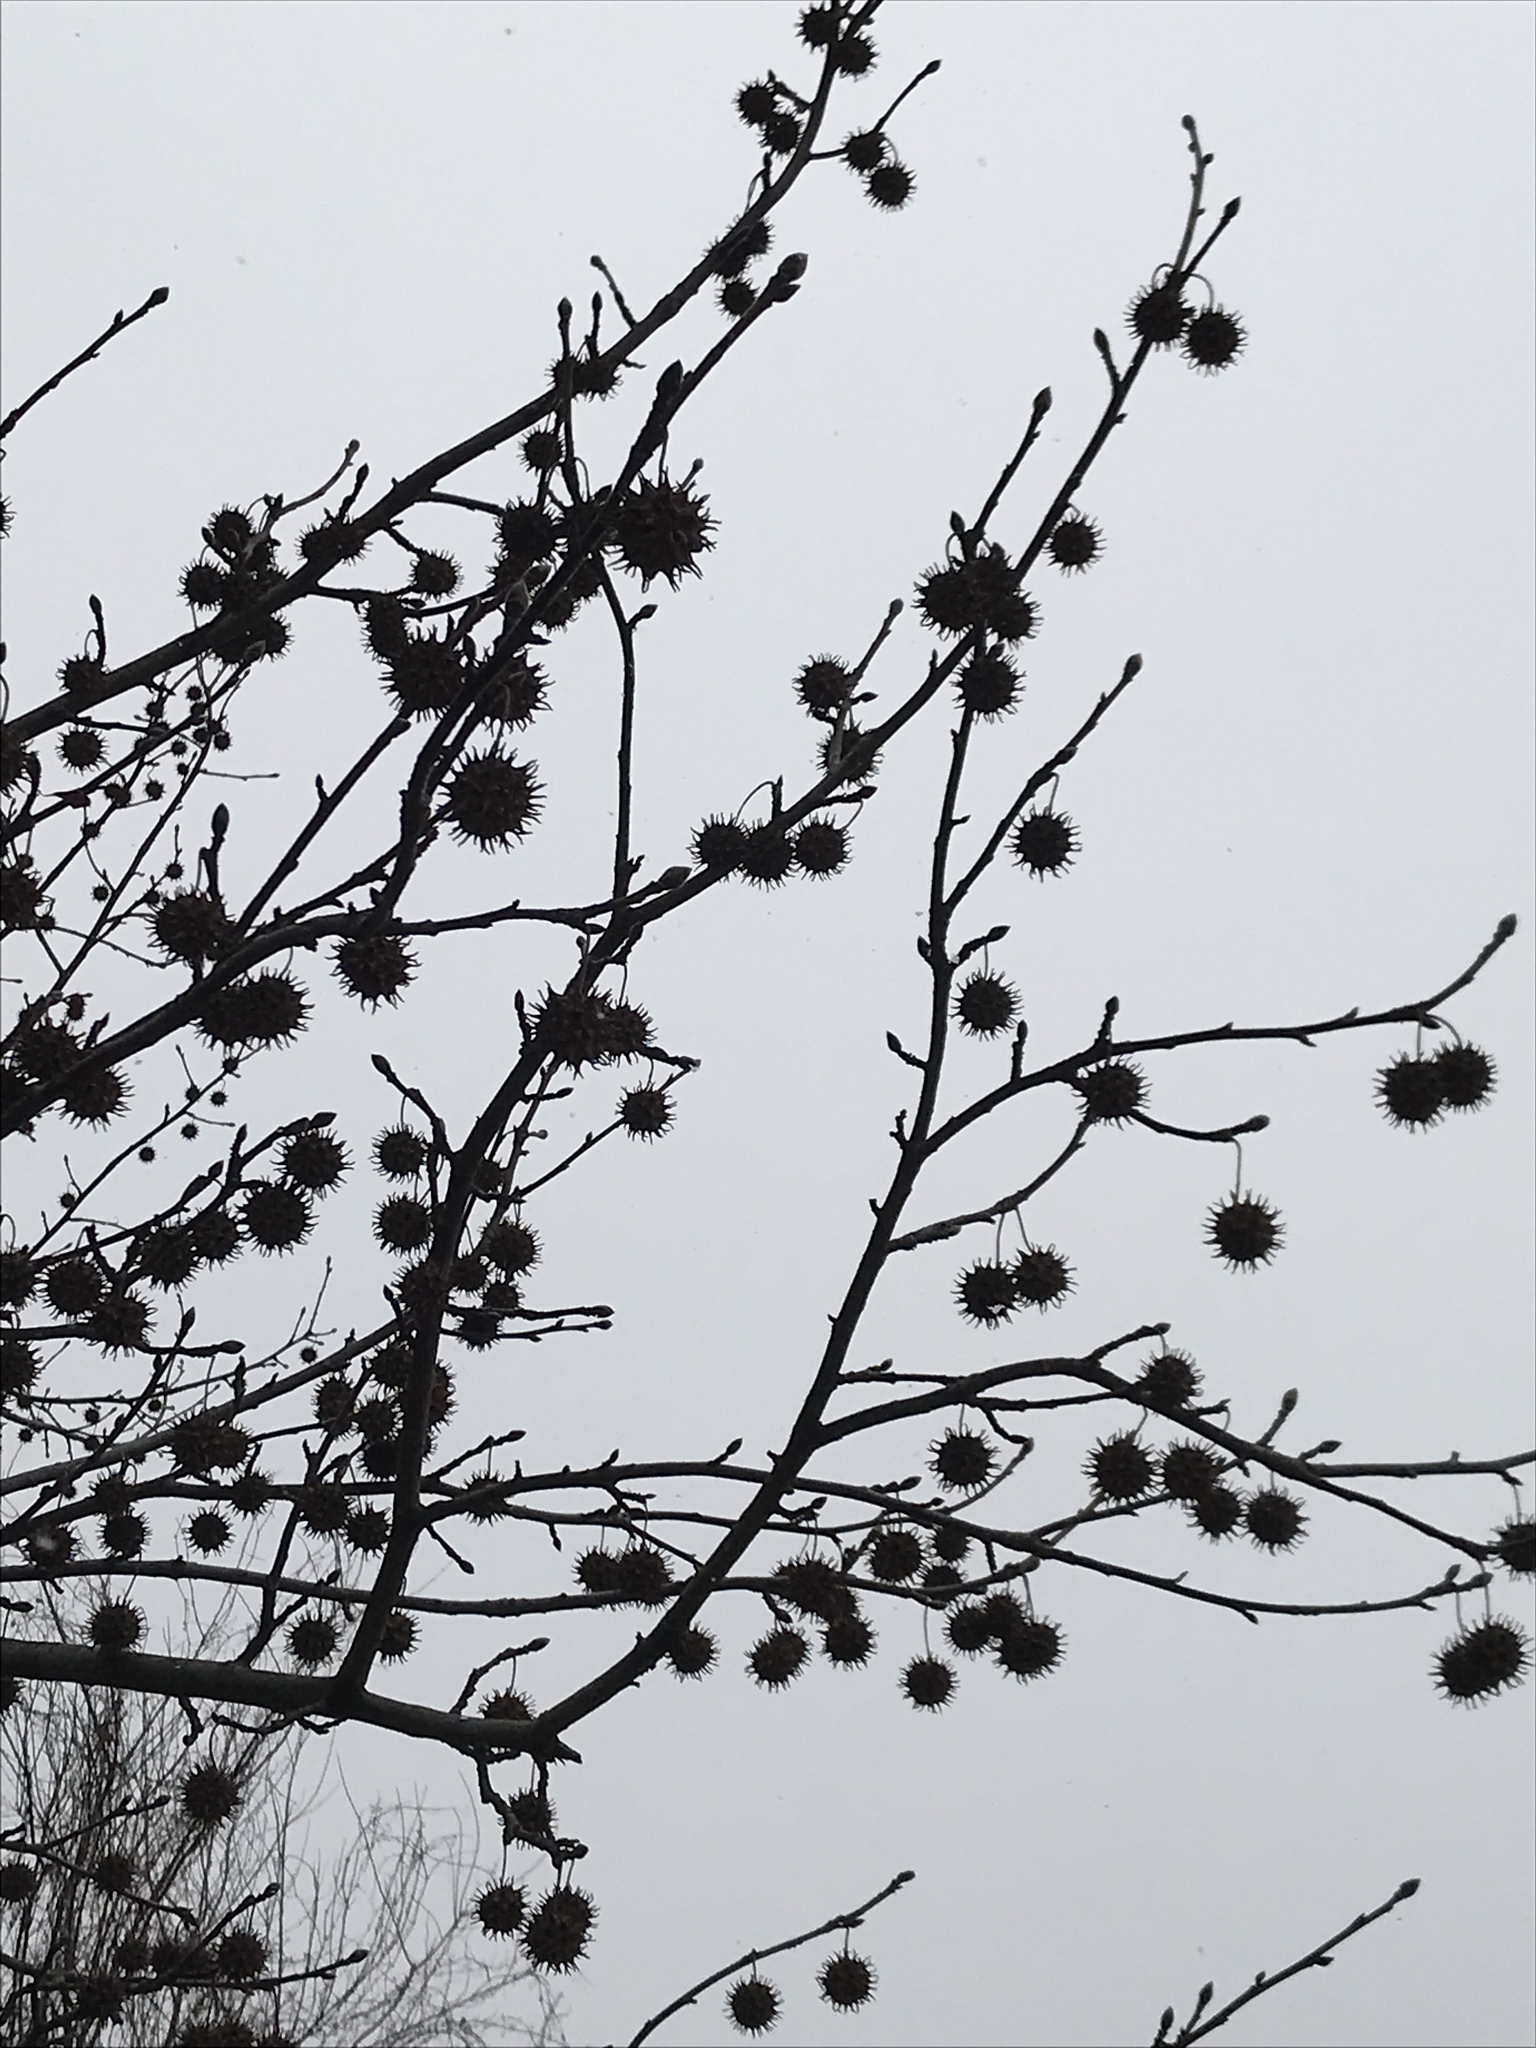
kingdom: Plantae
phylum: Tracheophyta
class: Magnoliopsida
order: Saxifragales
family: Altingiaceae
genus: Liquidambar
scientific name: Liquidambar styraciflua
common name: Sweet gum
